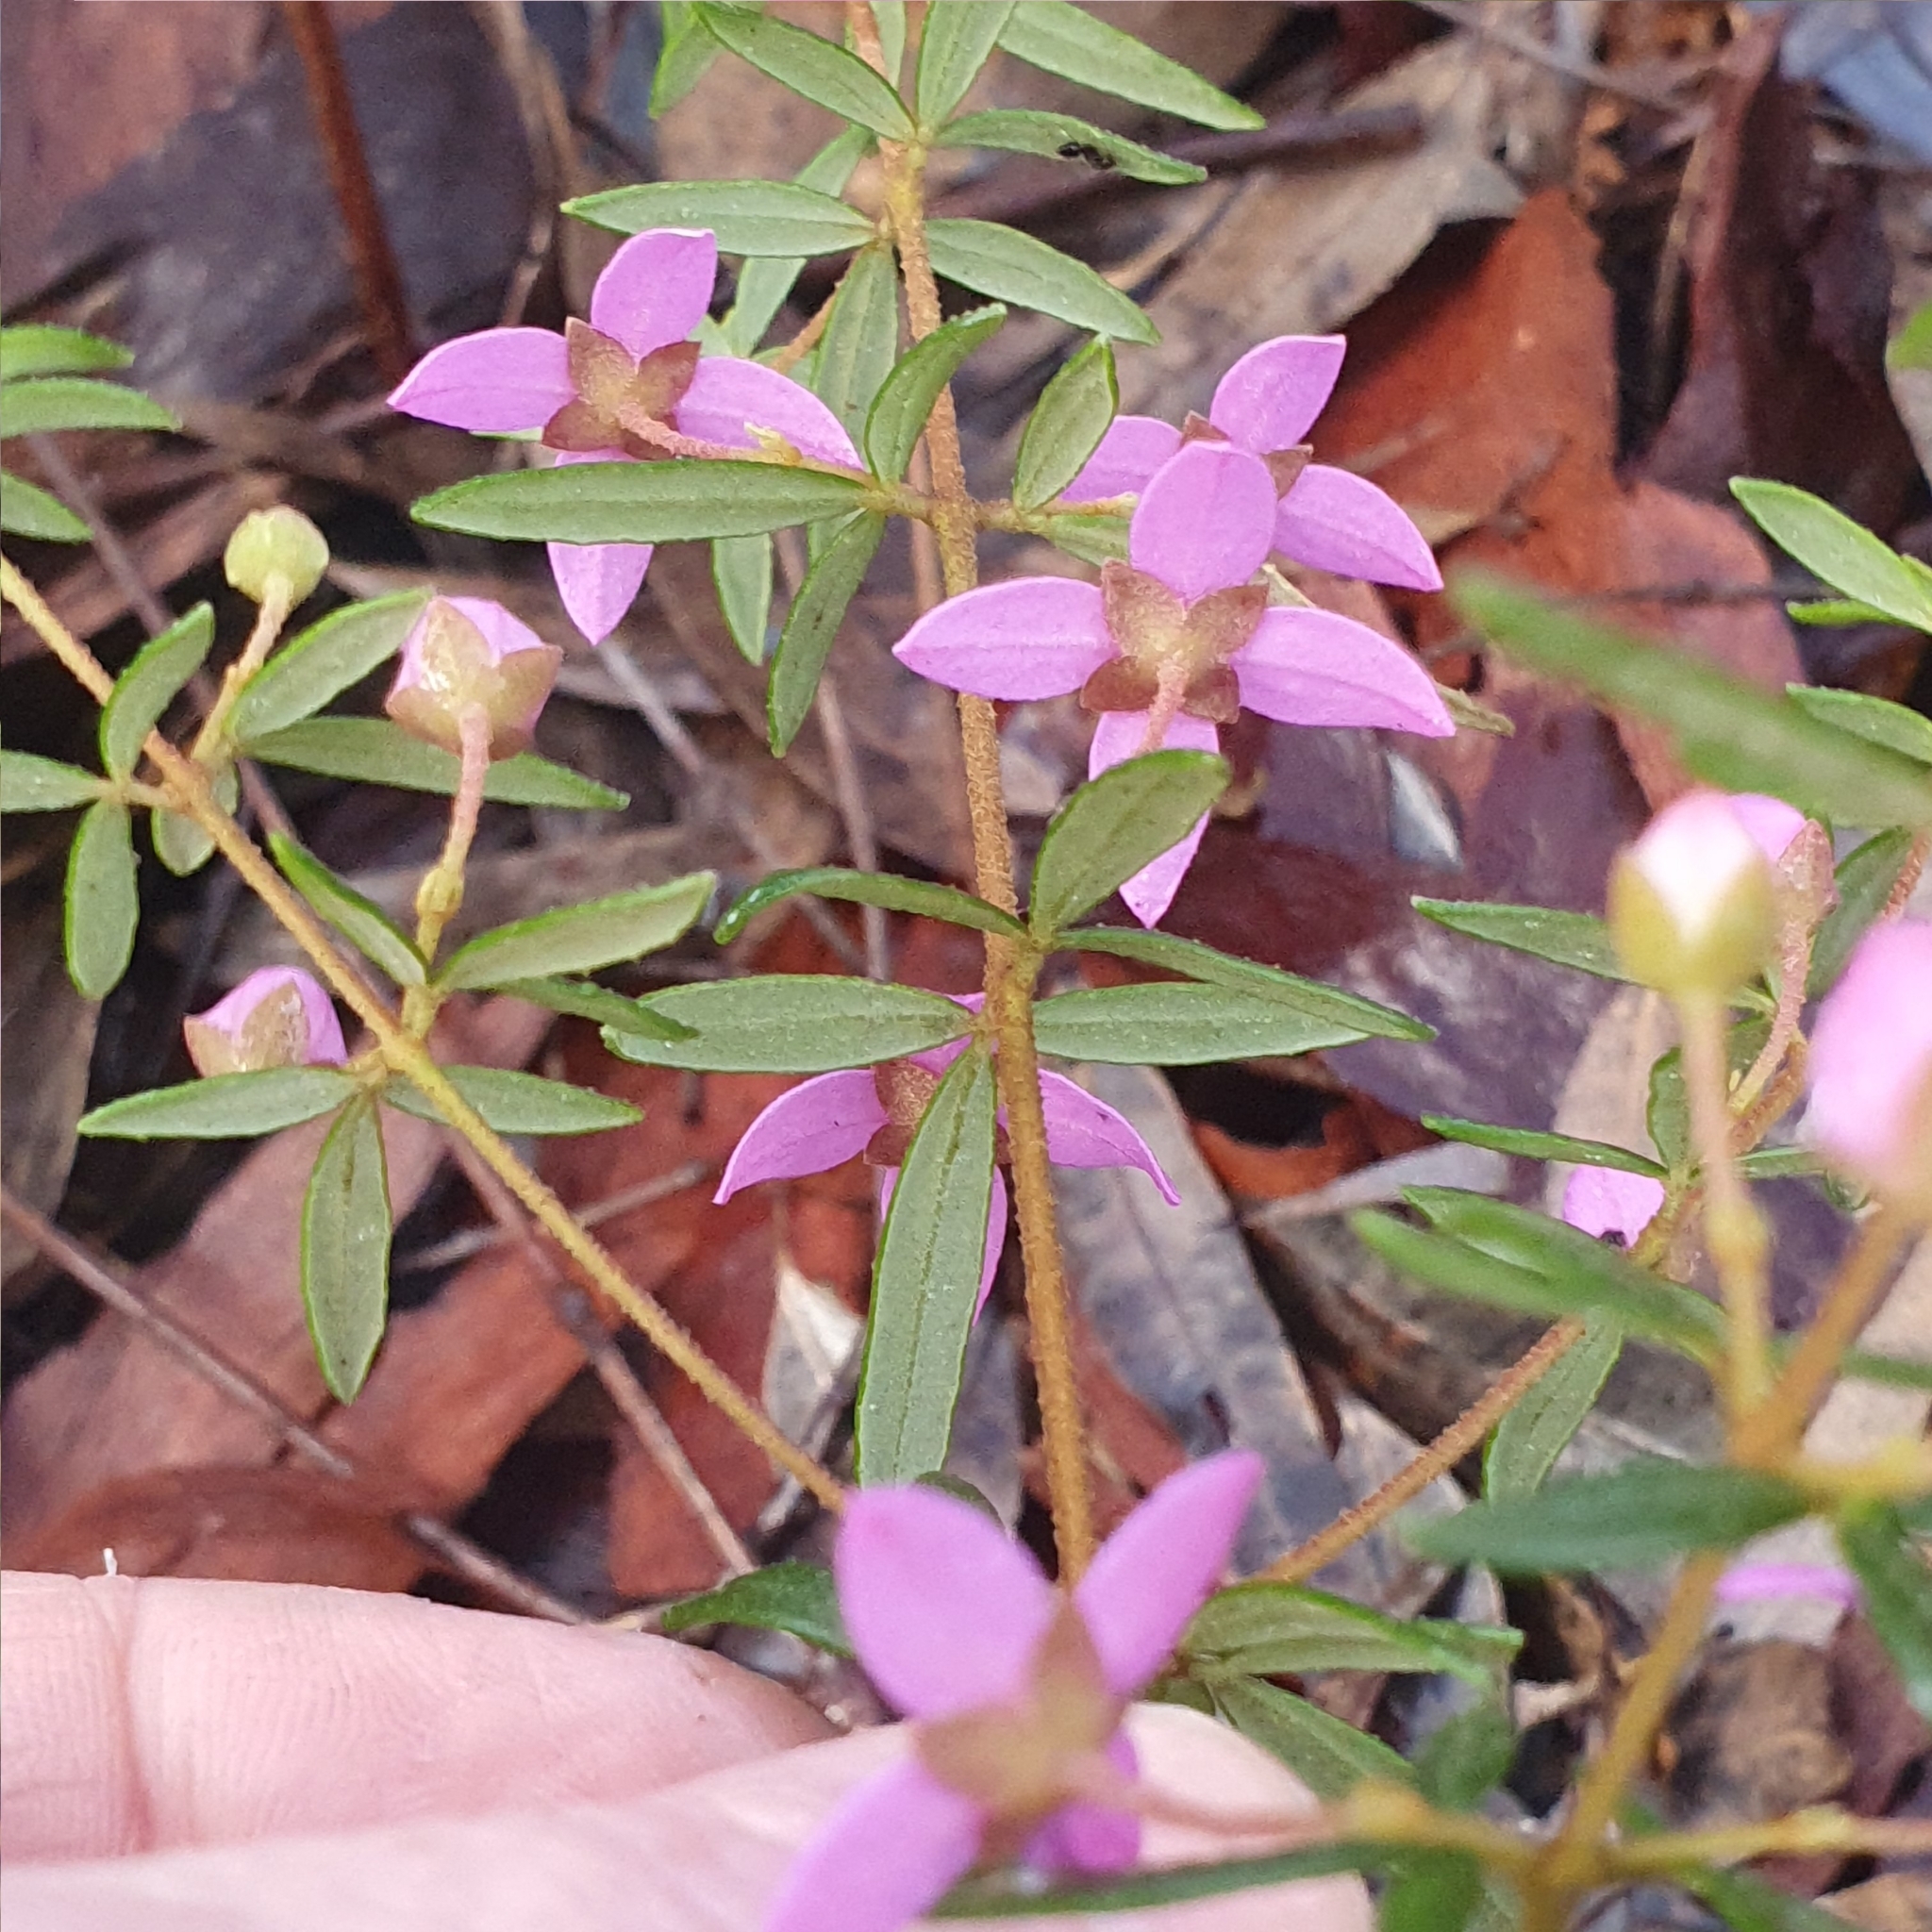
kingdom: Plantae
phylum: Tracheophyta
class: Magnoliopsida
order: Sapindales
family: Rutaceae
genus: Boronia
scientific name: Boronia ledifolia
